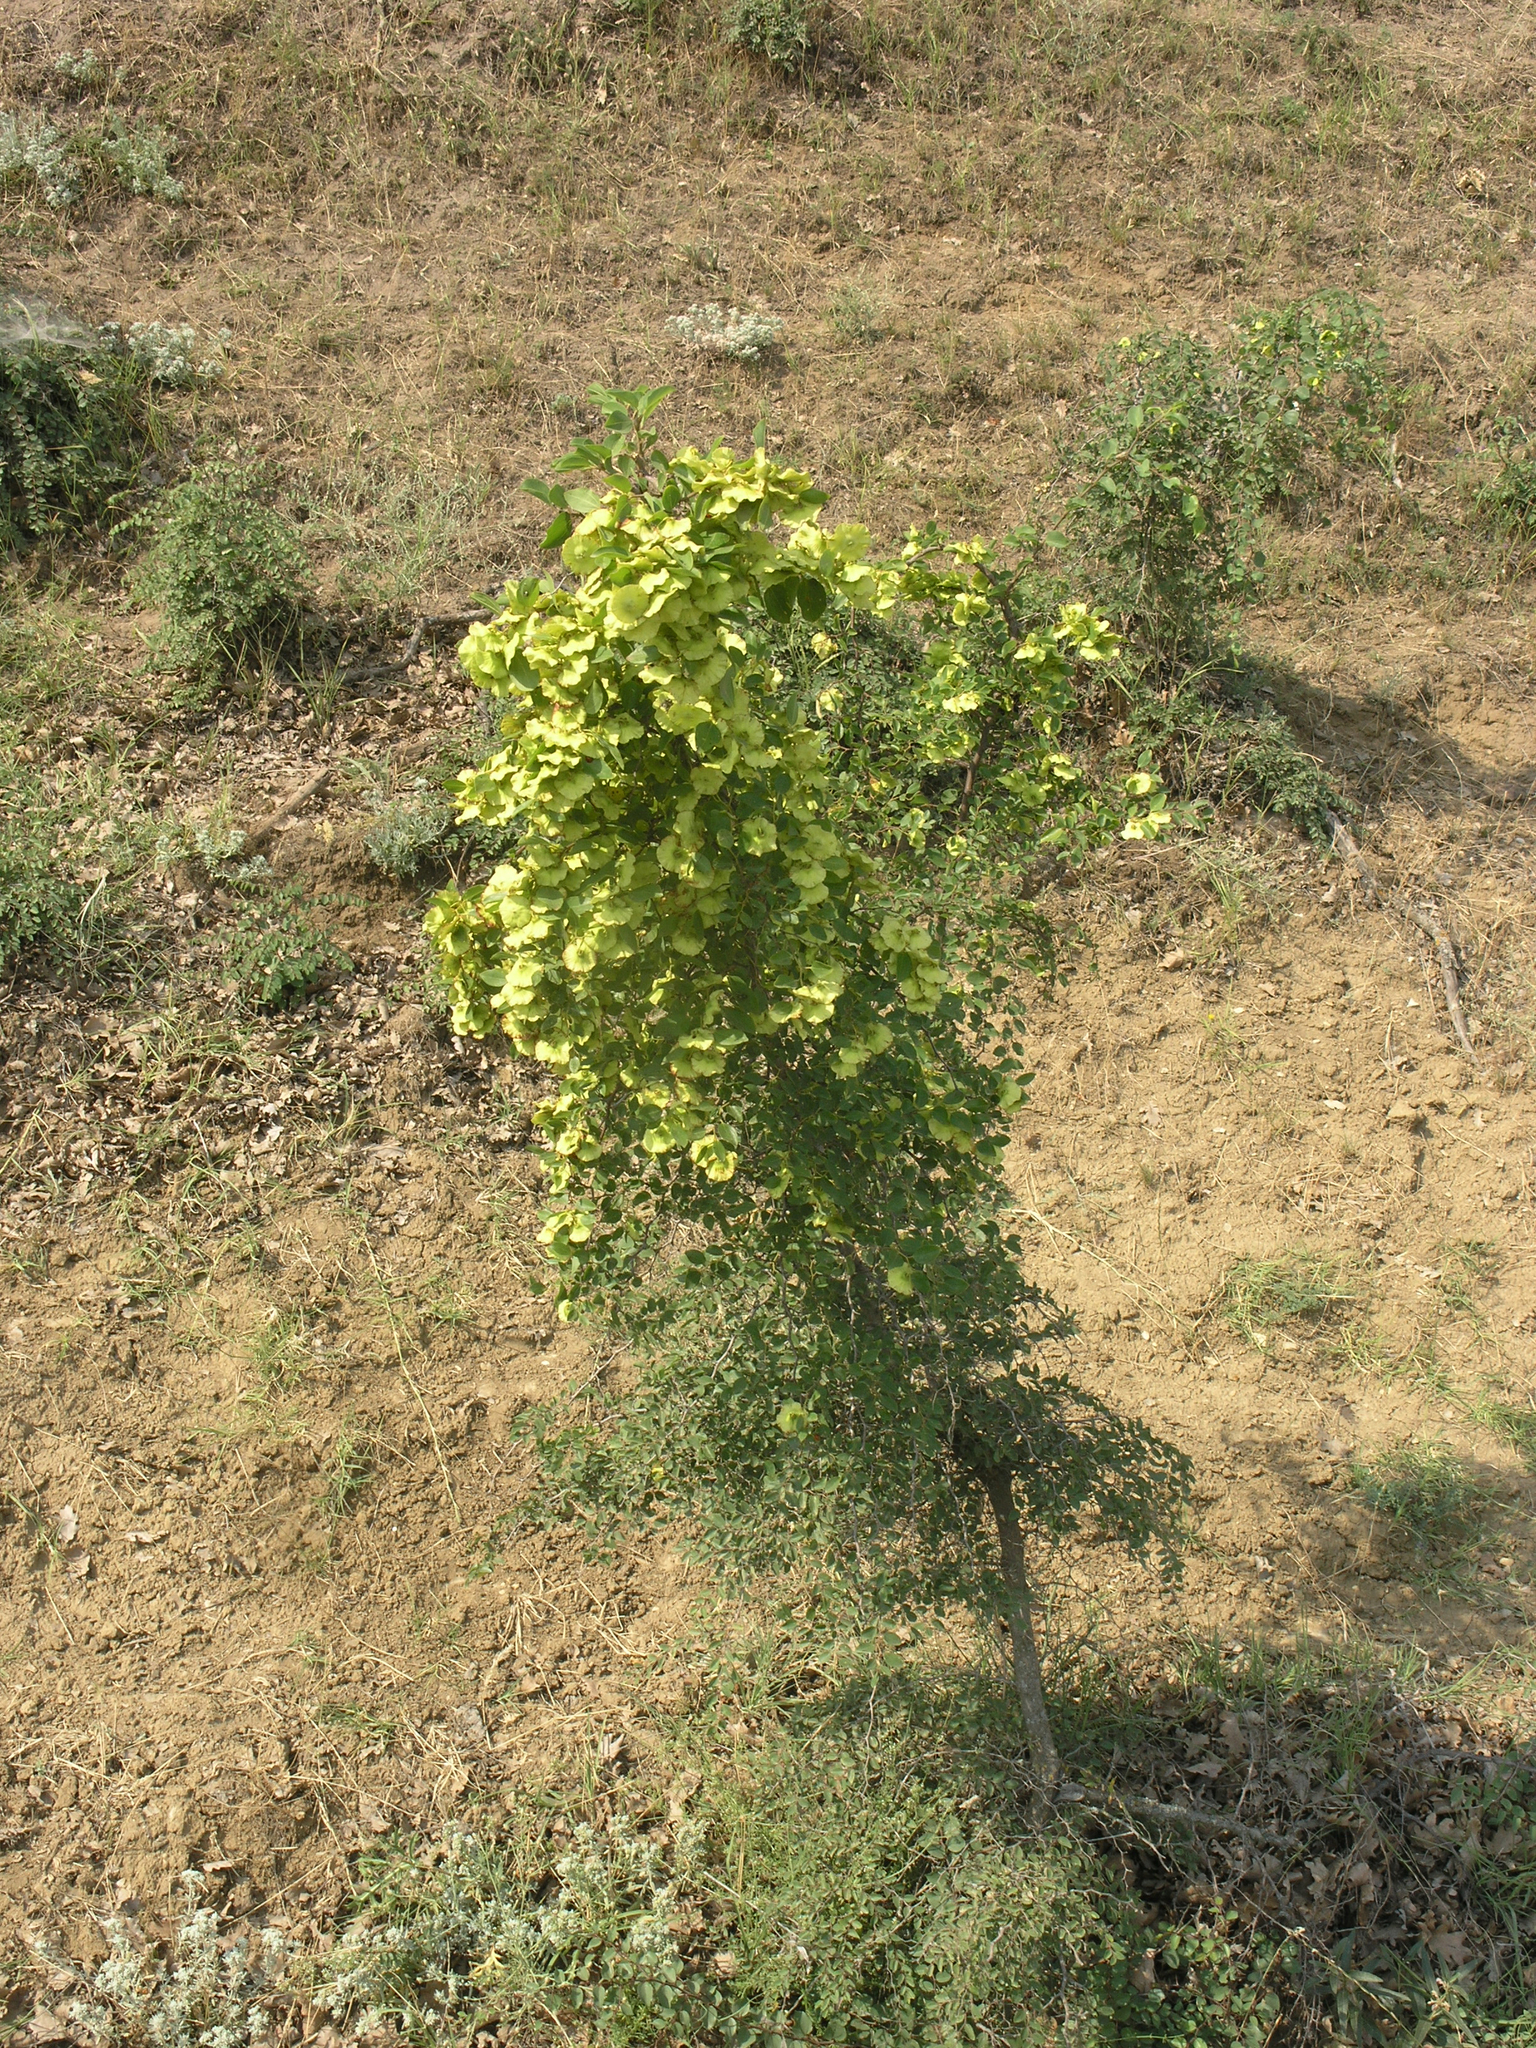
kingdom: Plantae
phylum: Tracheophyta
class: Magnoliopsida
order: Rosales
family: Rhamnaceae
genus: Paliurus
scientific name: Paliurus spina-christi
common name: Jeruselem thorn
